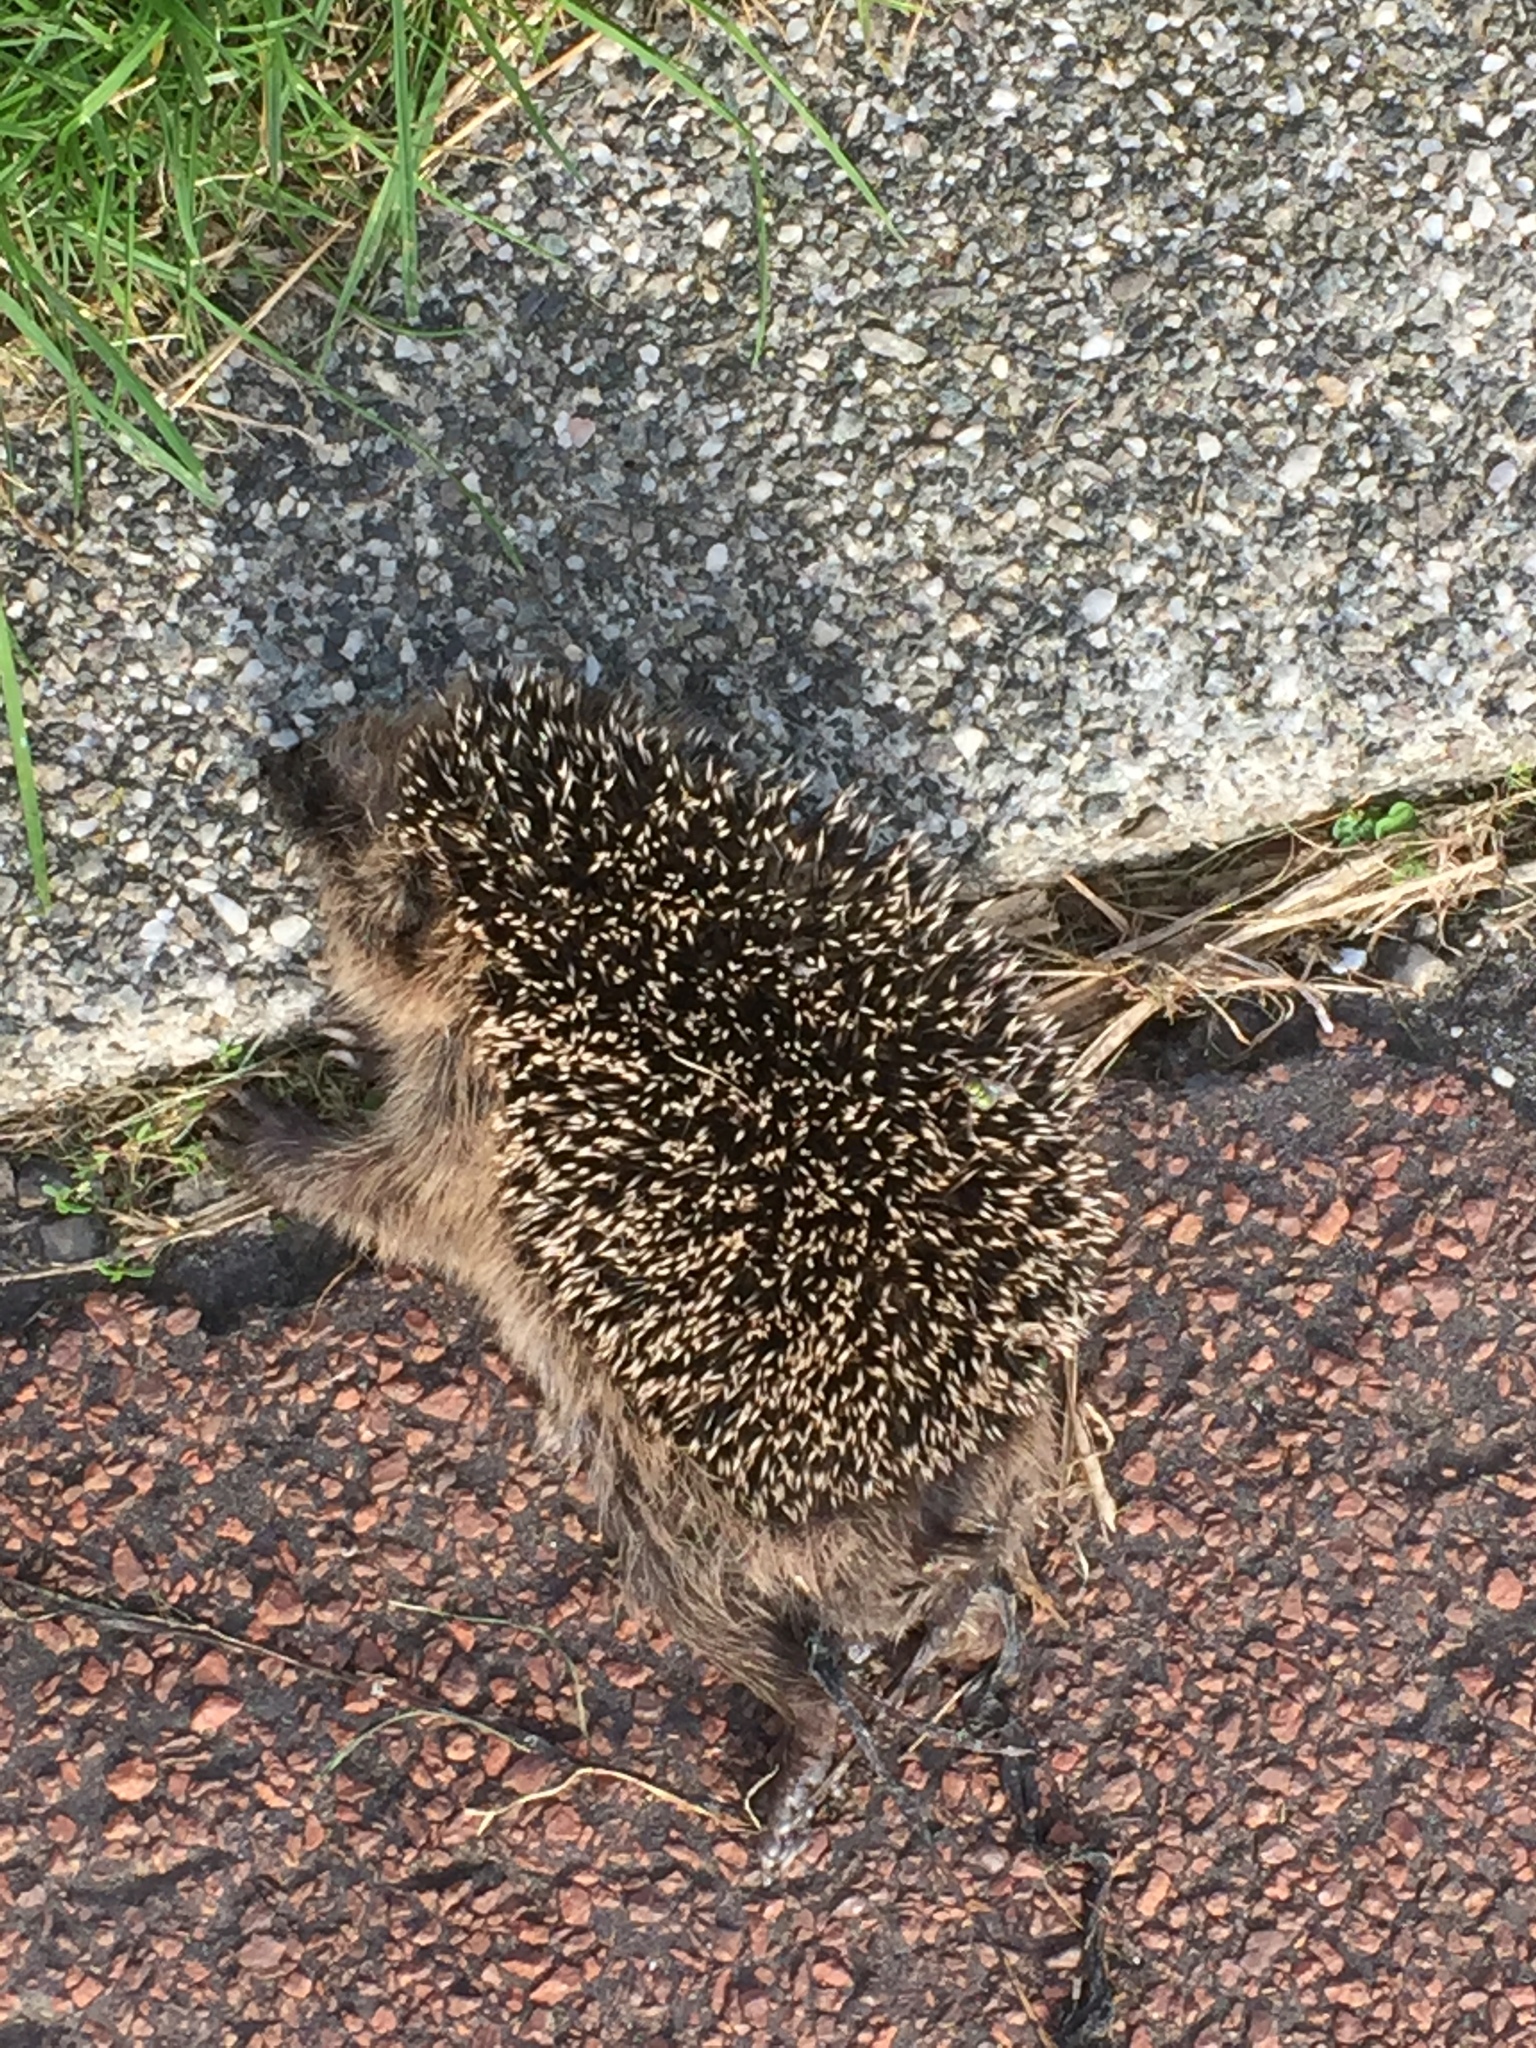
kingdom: Animalia
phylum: Chordata
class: Mammalia
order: Erinaceomorpha
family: Erinaceidae
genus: Erinaceus
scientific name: Erinaceus europaeus
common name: West european hedgehog
